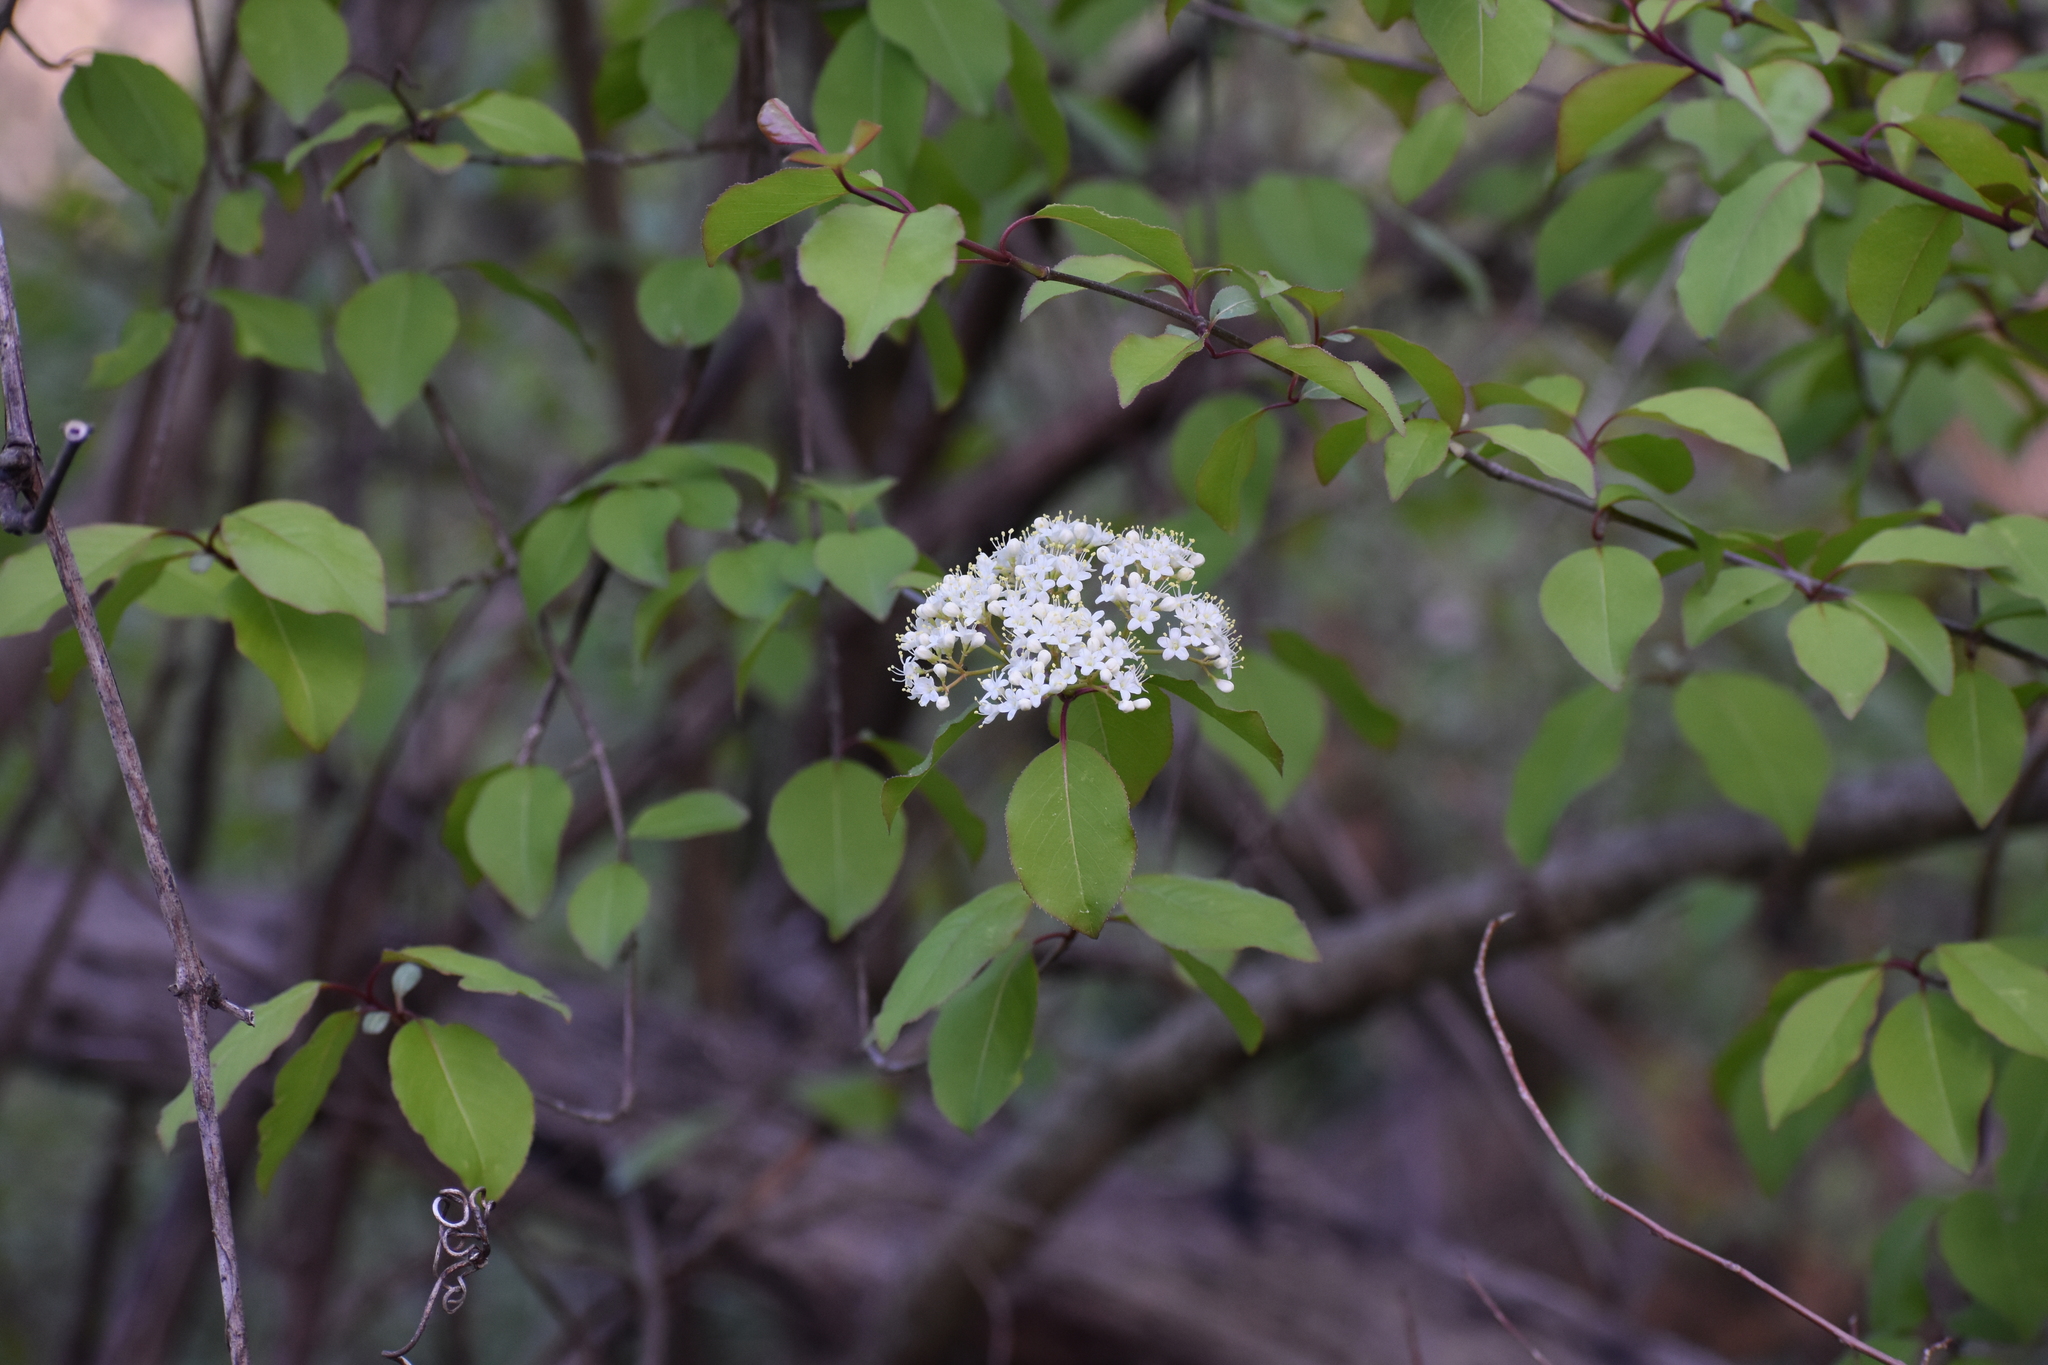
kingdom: Plantae
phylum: Tracheophyta
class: Magnoliopsida
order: Dipsacales
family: Viburnaceae
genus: Viburnum
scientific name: Viburnum prunifolium
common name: Black haw
